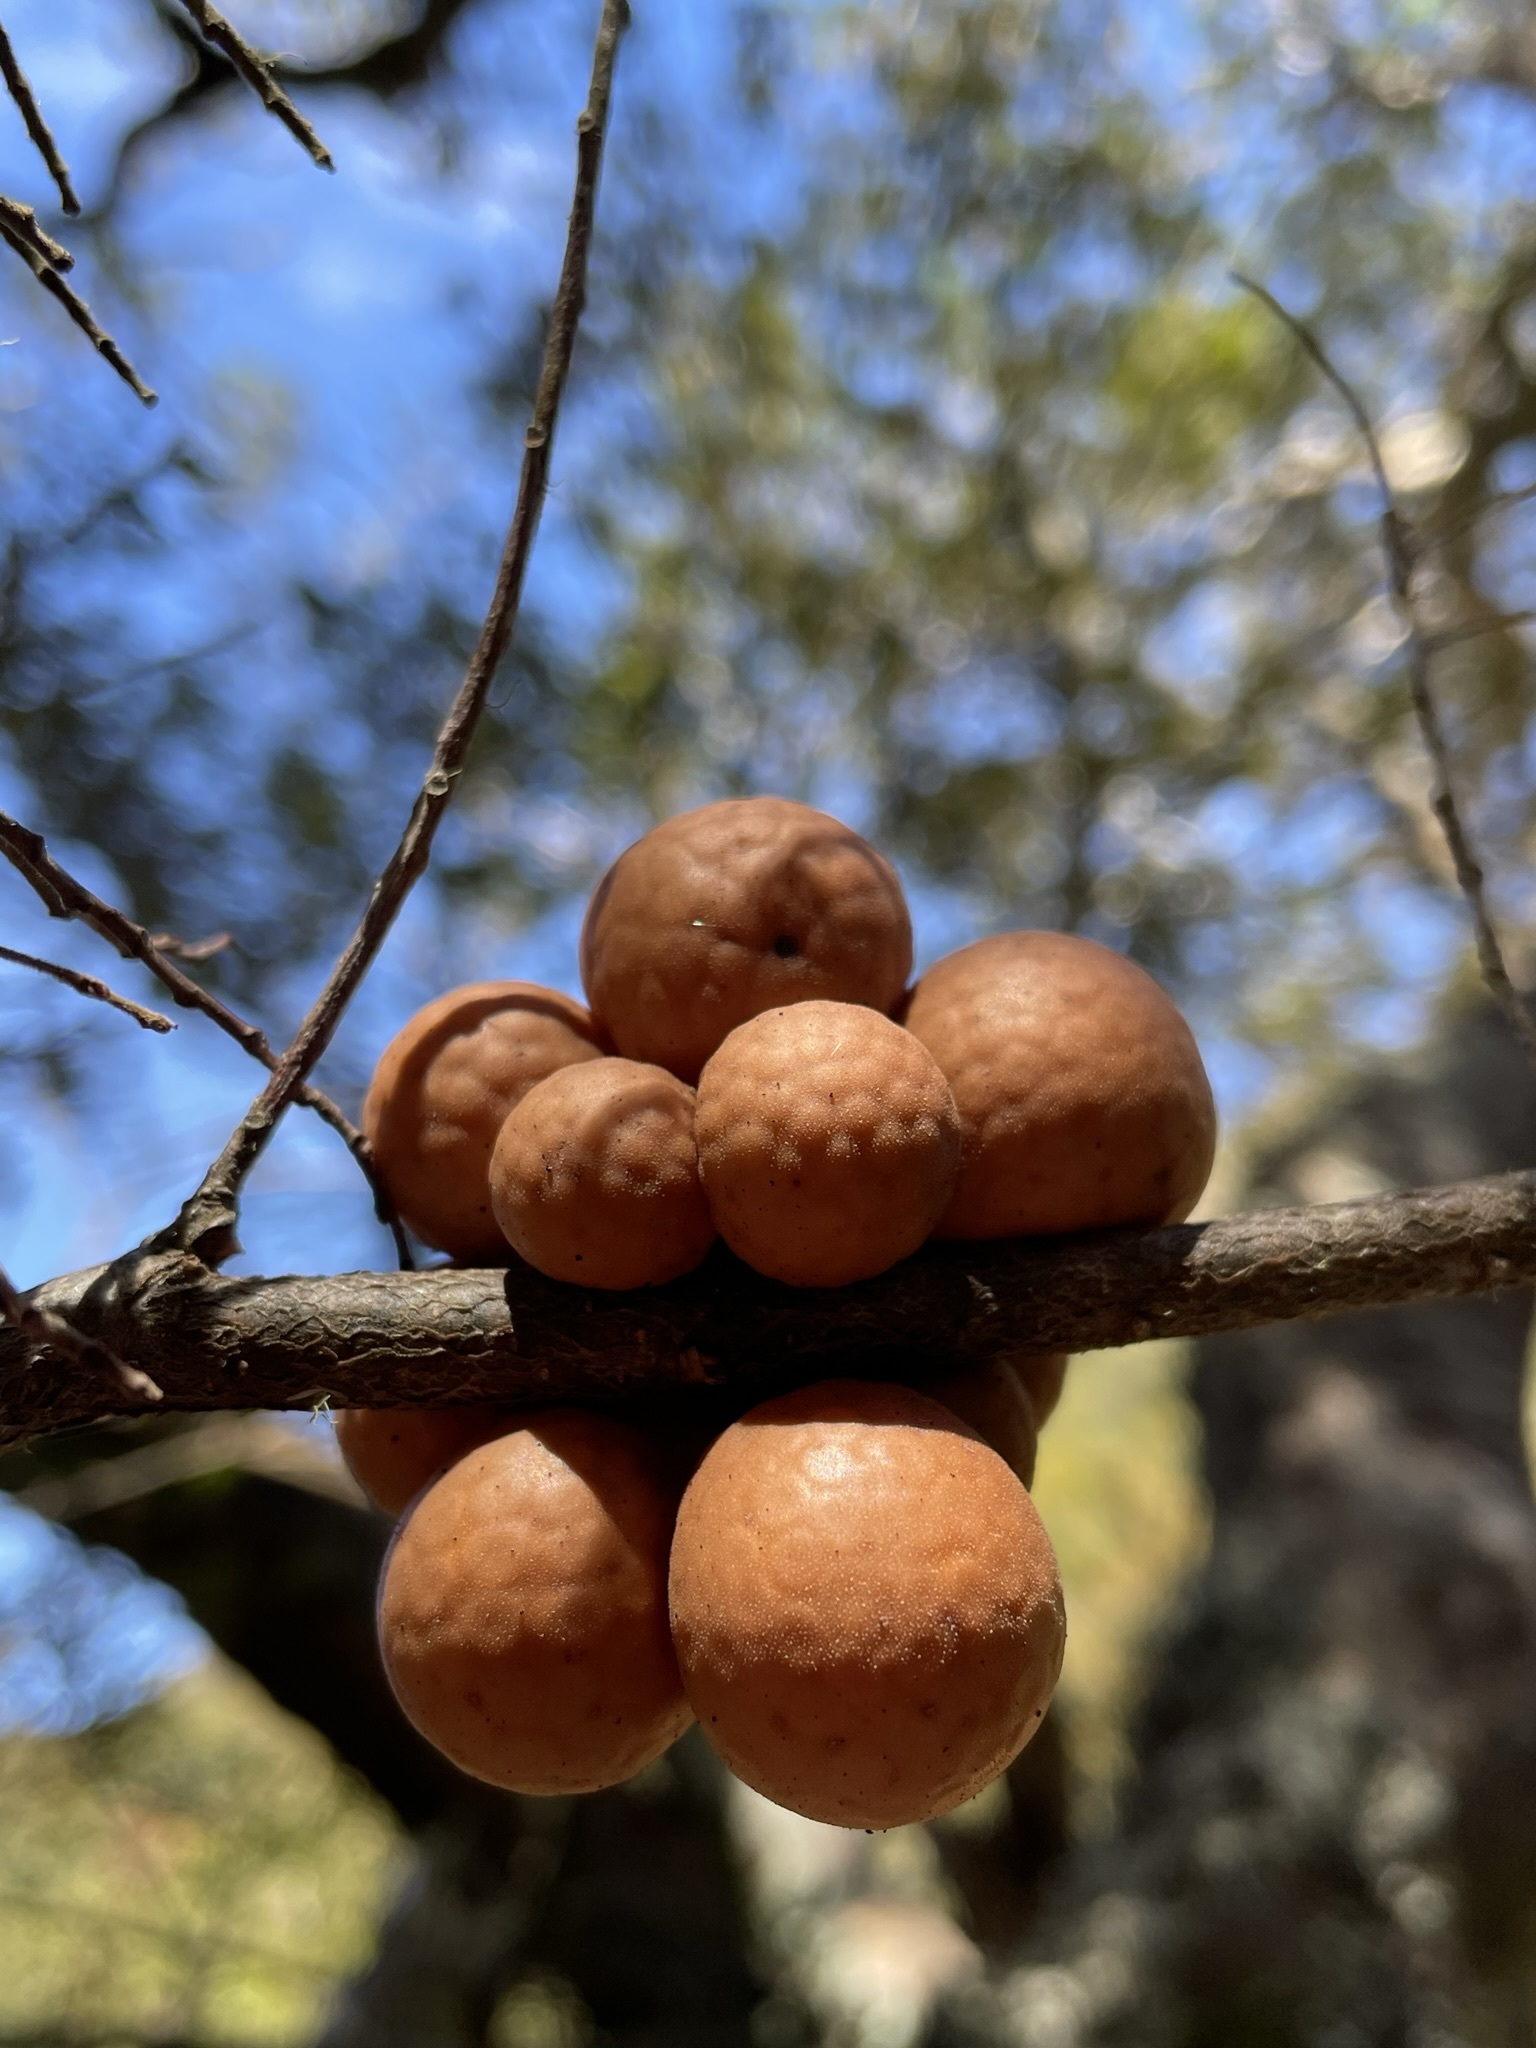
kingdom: Fungi
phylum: Ascomycota
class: Leotiomycetes
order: Cyttariales
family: Cyttariaceae
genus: Cyttaria
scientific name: Cyttaria gunnii
